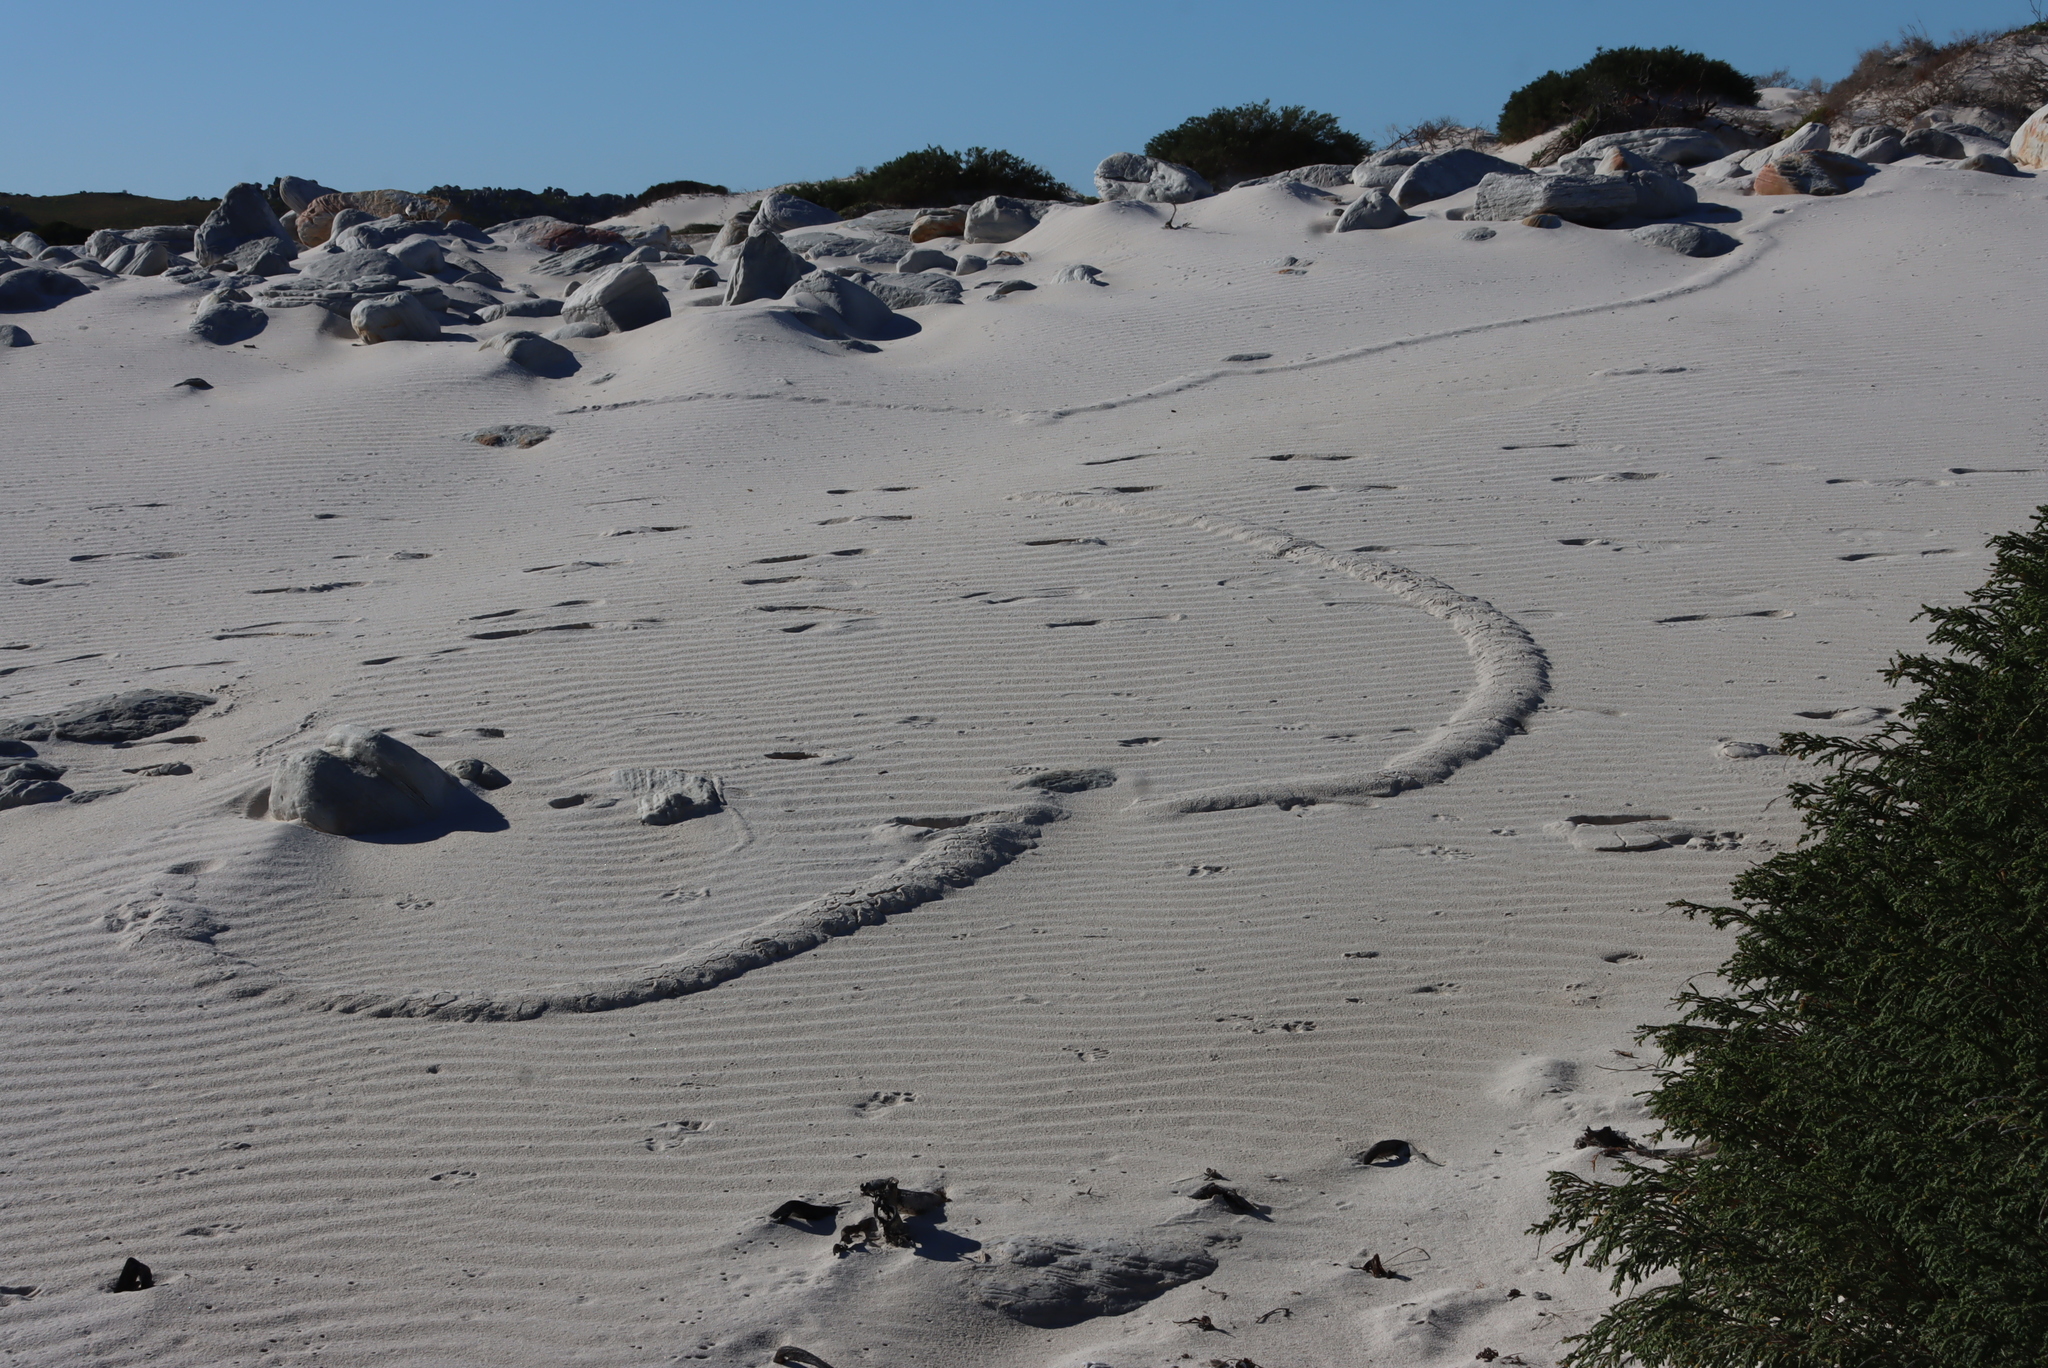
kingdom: Animalia
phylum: Chordata
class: Mammalia
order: Afrosoricida
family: Chrysochloridae
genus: Chrysochloris
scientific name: Chrysochloris asiatica
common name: Cape golden mole
